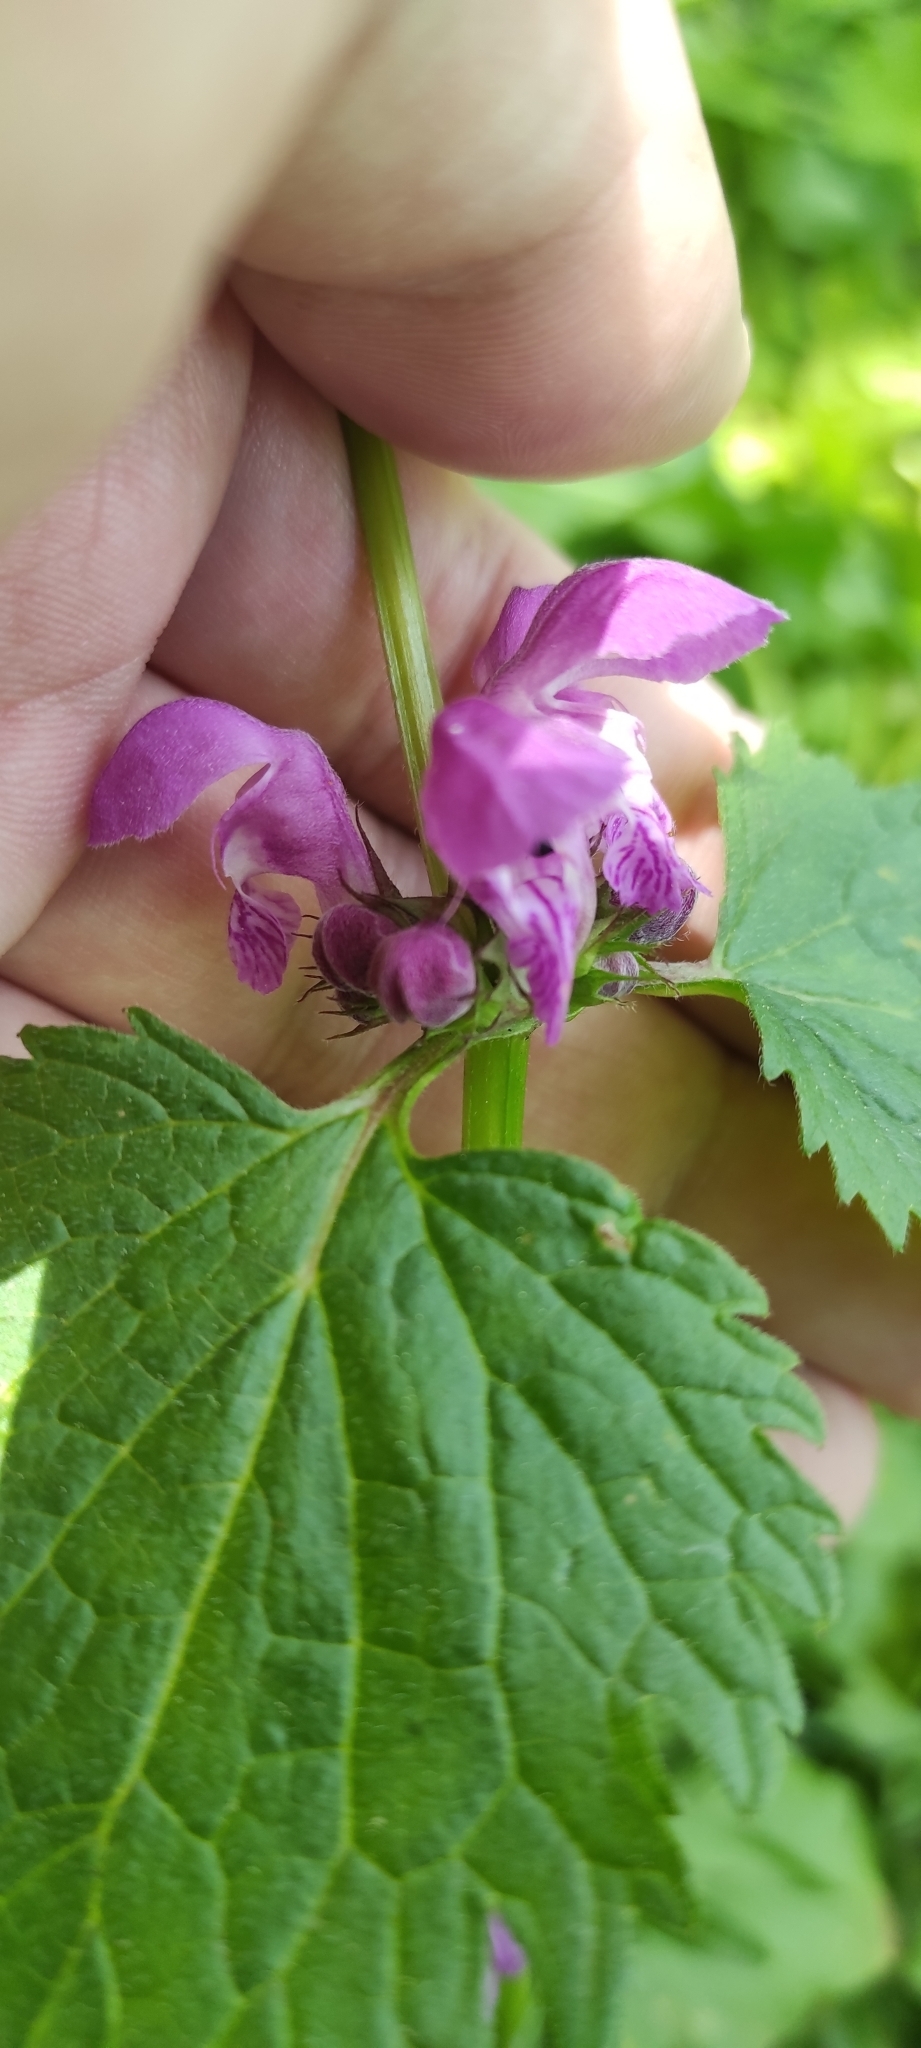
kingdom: Plantae
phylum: Tracheophyta
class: Magnoliopsida
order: Lamiales
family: Lamiaceae
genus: Lamium
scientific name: Lamium maculatum
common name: Spotted dead-nettle
